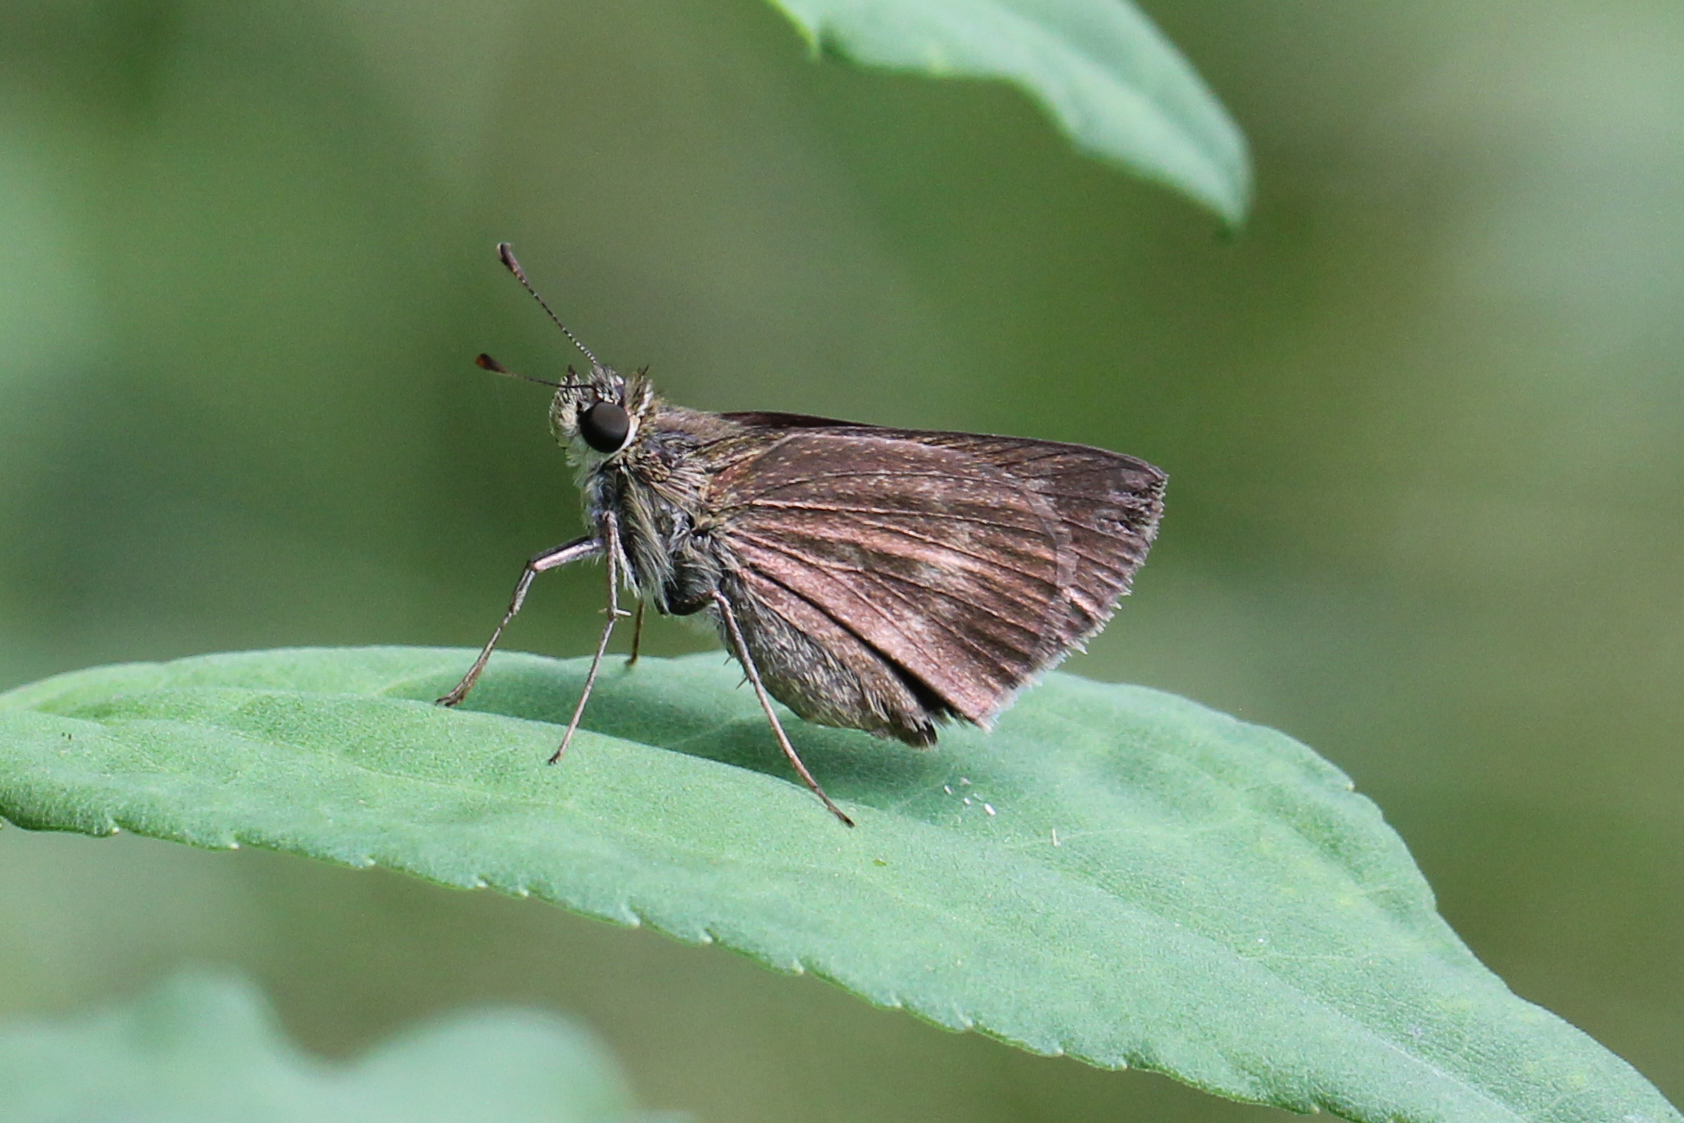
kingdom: Animalia
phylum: Arthropoda
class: Insecta
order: Lepidoptera
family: Hesperiidae
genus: Polites
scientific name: Polites egeremet
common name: Northern broken-dash
